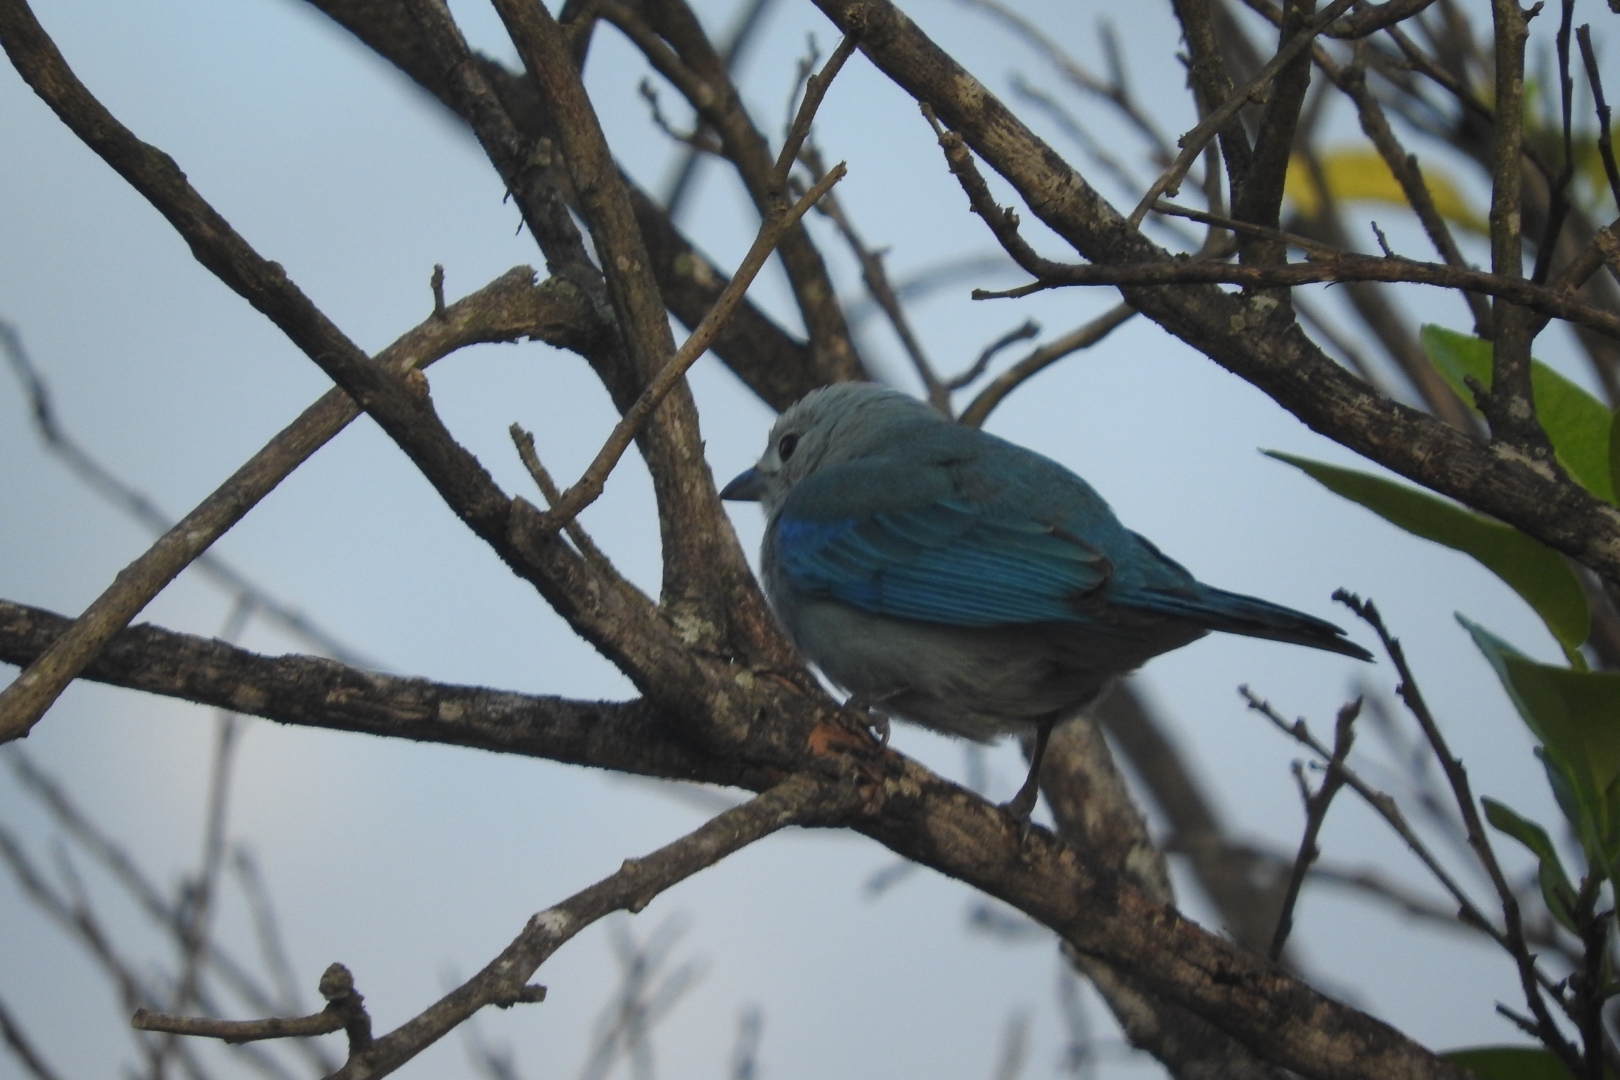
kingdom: Animalia
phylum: Chordata
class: Aves
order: Passeriformes
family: Thraupidae
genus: Thraupis
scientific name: Thraupis episcopus
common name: Blue-grey tanager
